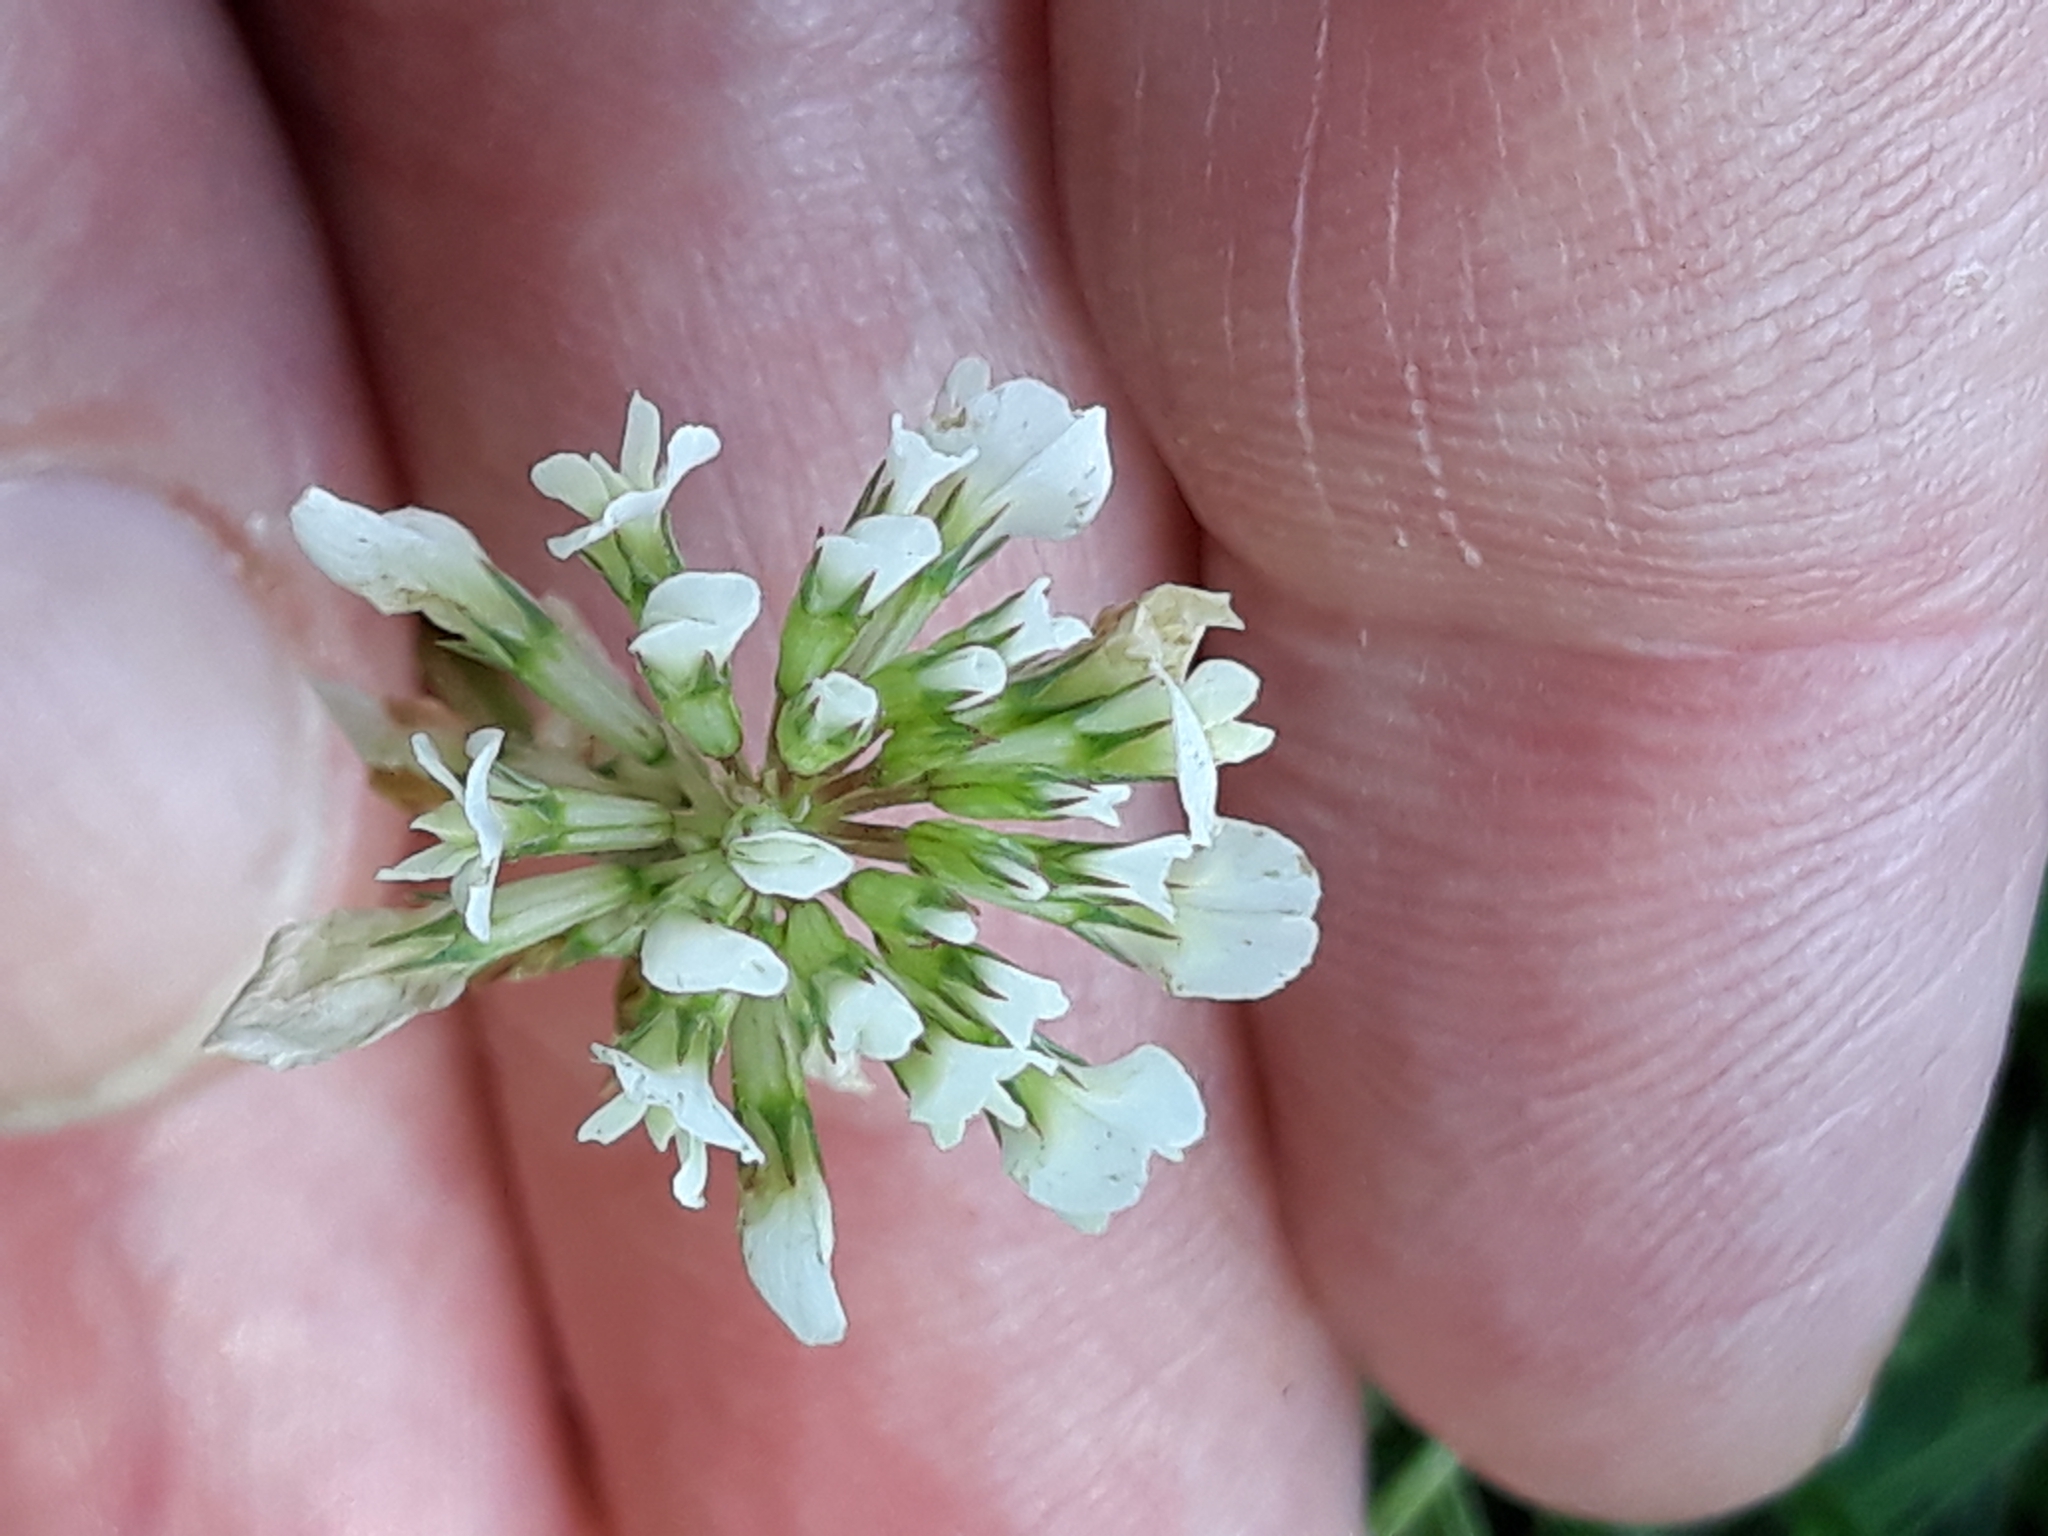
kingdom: Plantae
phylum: Tracheophyta
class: Magnoliopsida
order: Fabales
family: Fabaceae
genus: Trifolium
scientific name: Trifolium repens
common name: White clover
